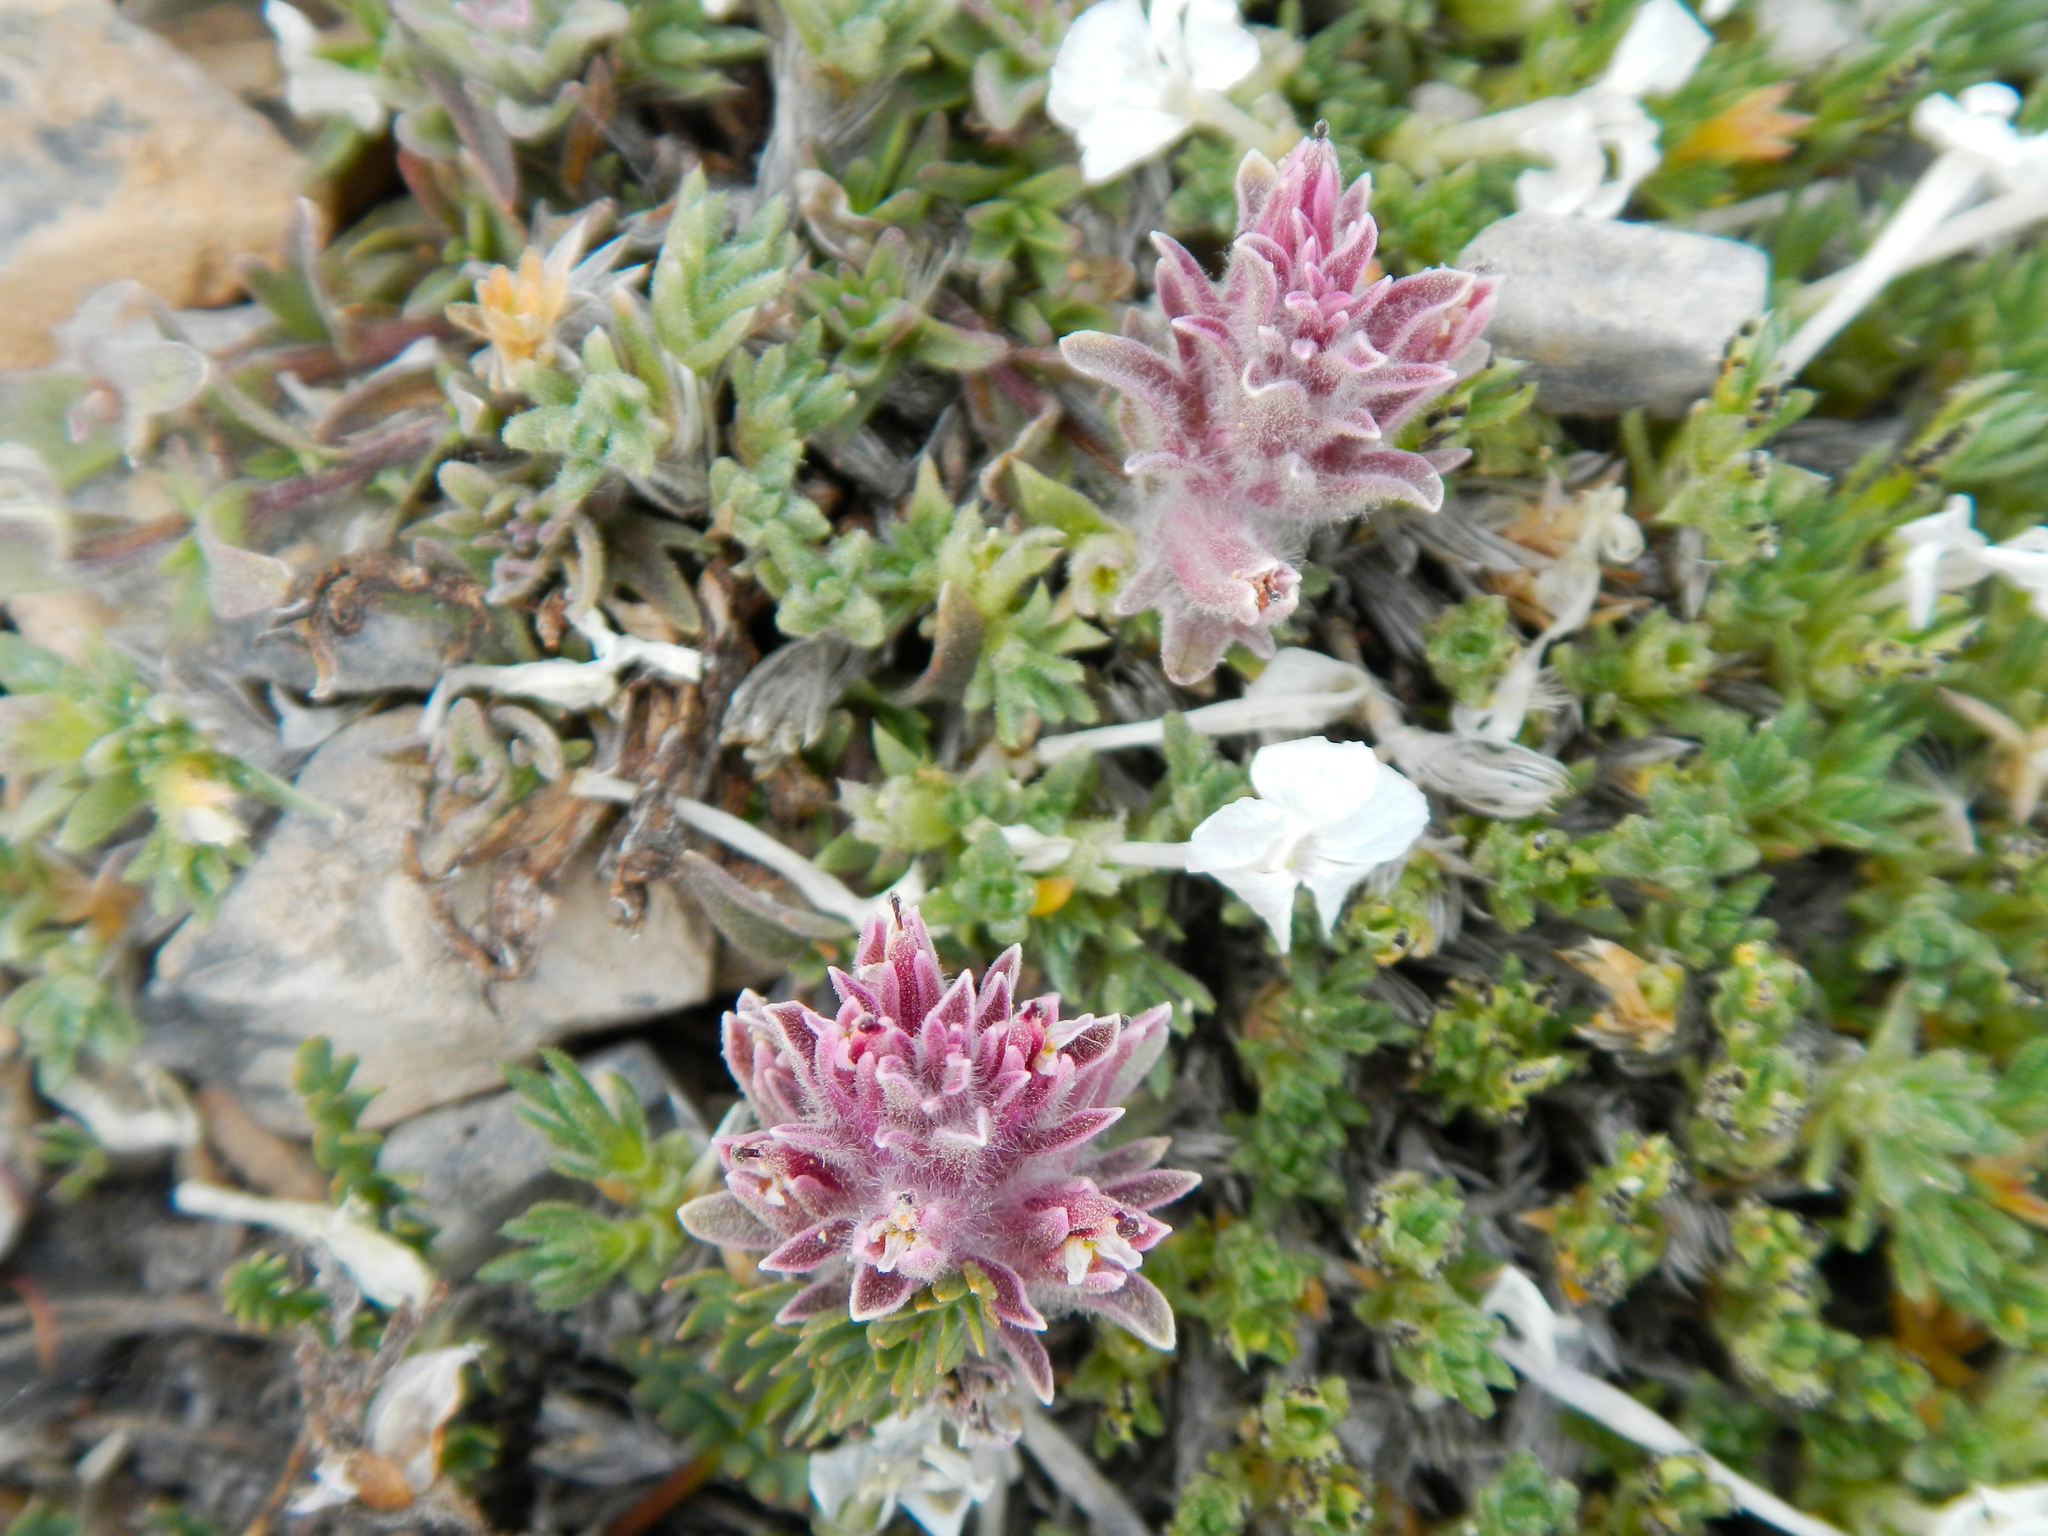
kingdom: Plantae
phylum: Tracheophyta
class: Magnoliopsida
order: Lamiales
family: Orobanchaceae
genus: Castilleja
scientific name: Castilleja nana
